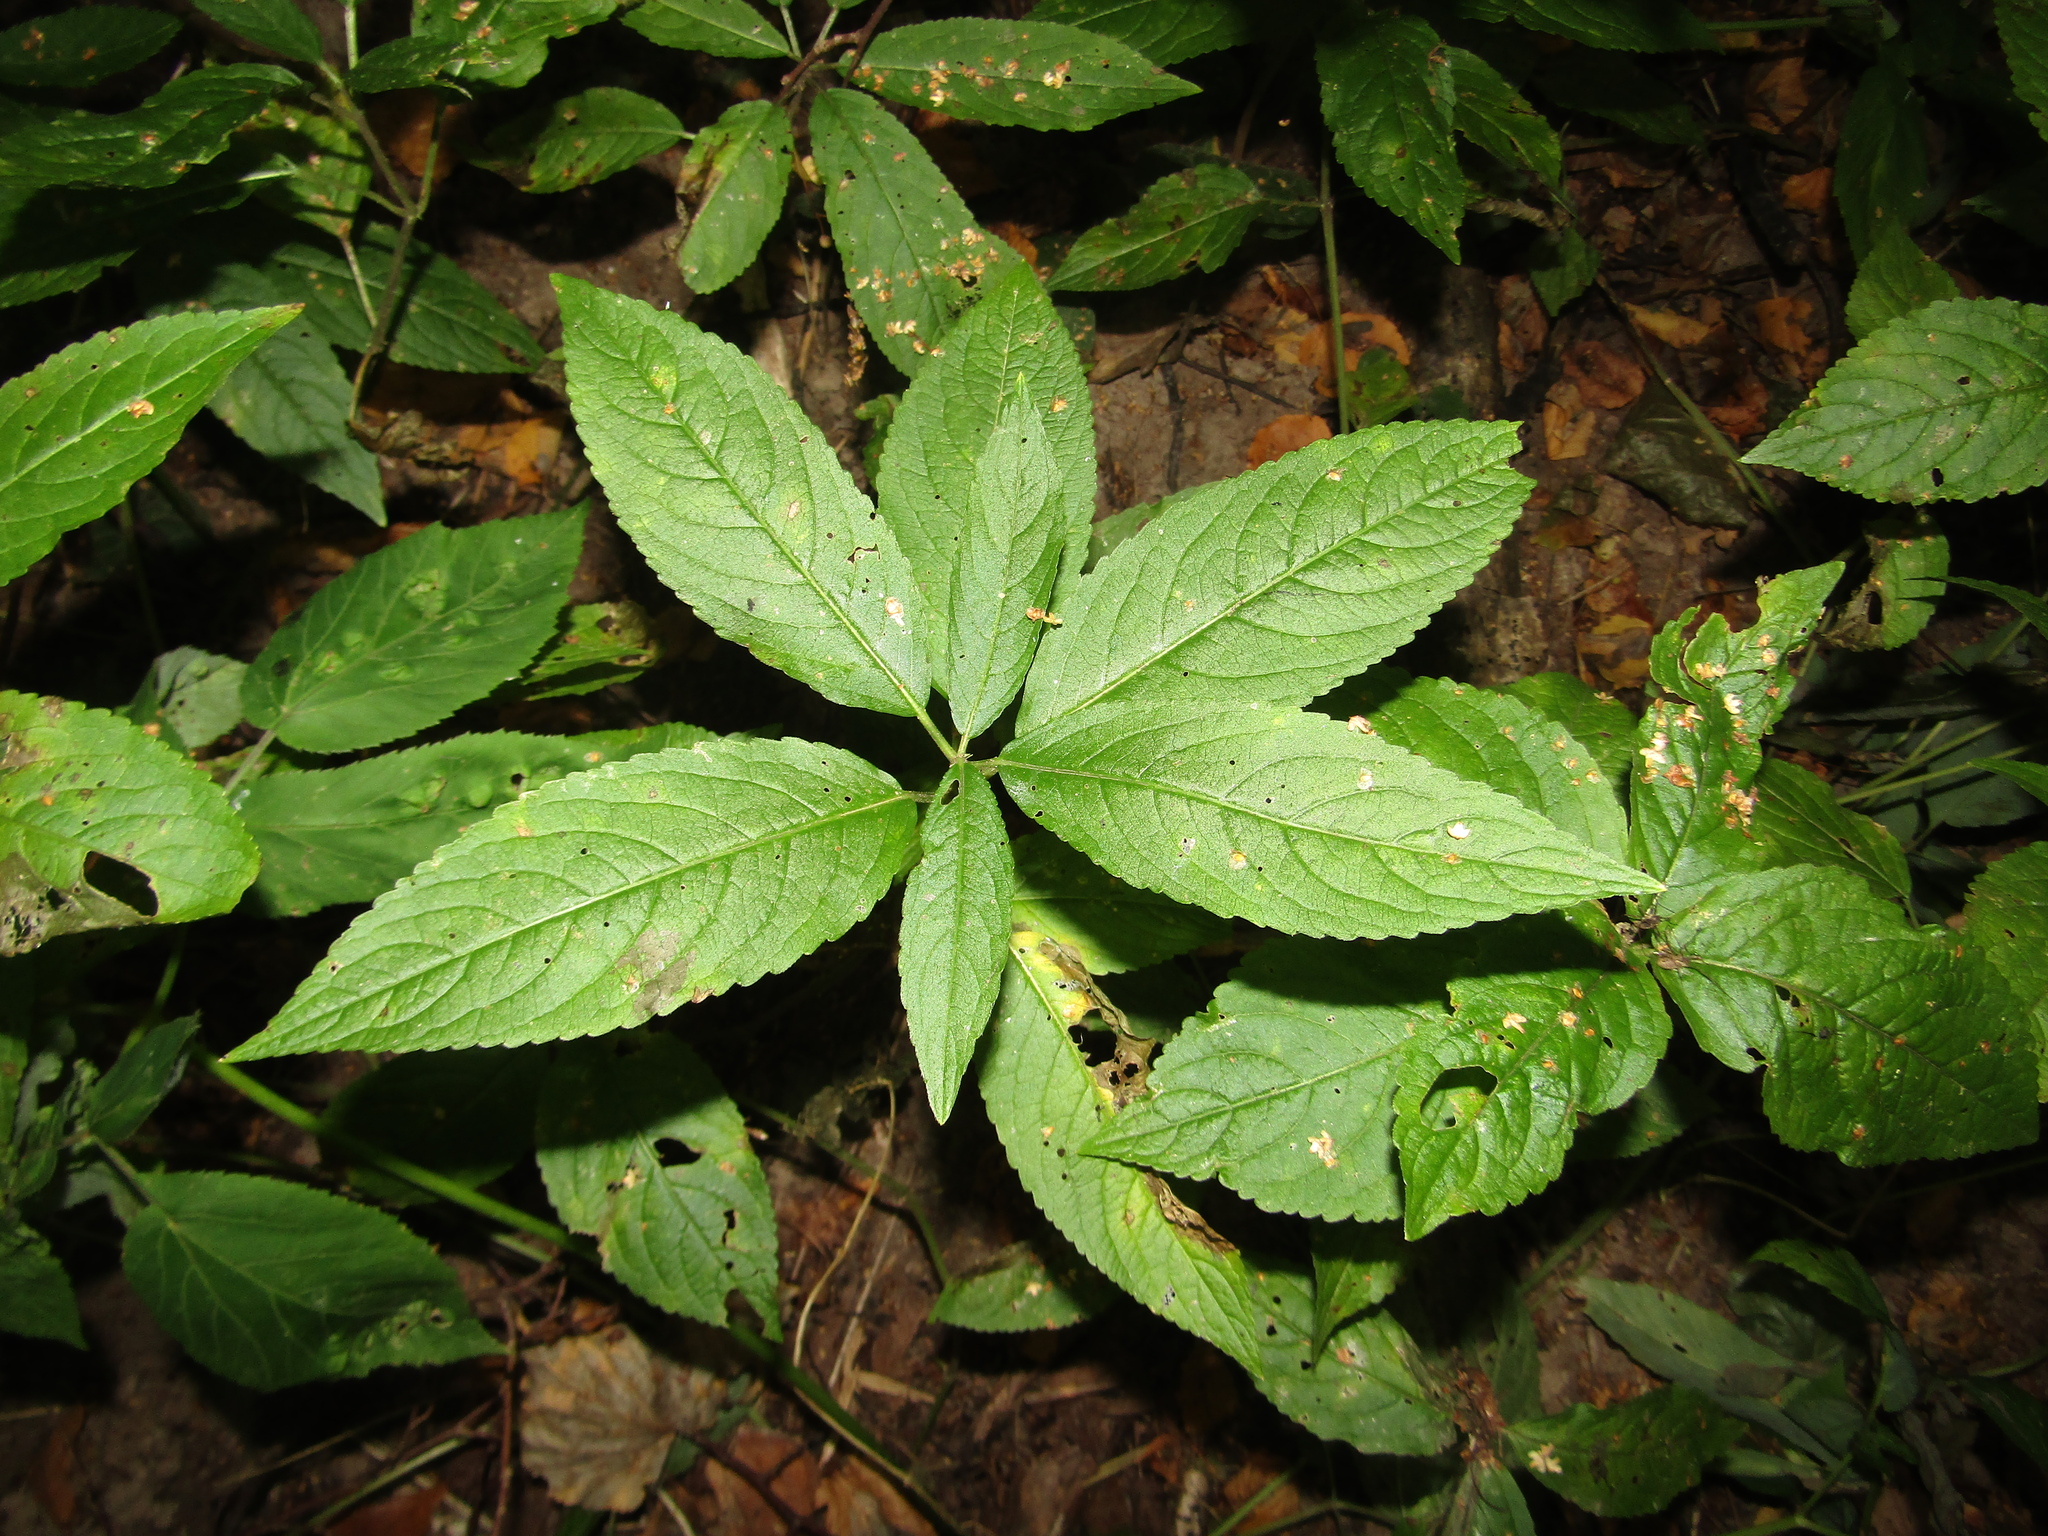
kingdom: Plantae
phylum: Tracheophyta
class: Magnoliopsida
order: Malpighiales
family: Euphorbiaceae
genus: Mercurialis
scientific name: Mercurialis perennis
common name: Dog mercury
